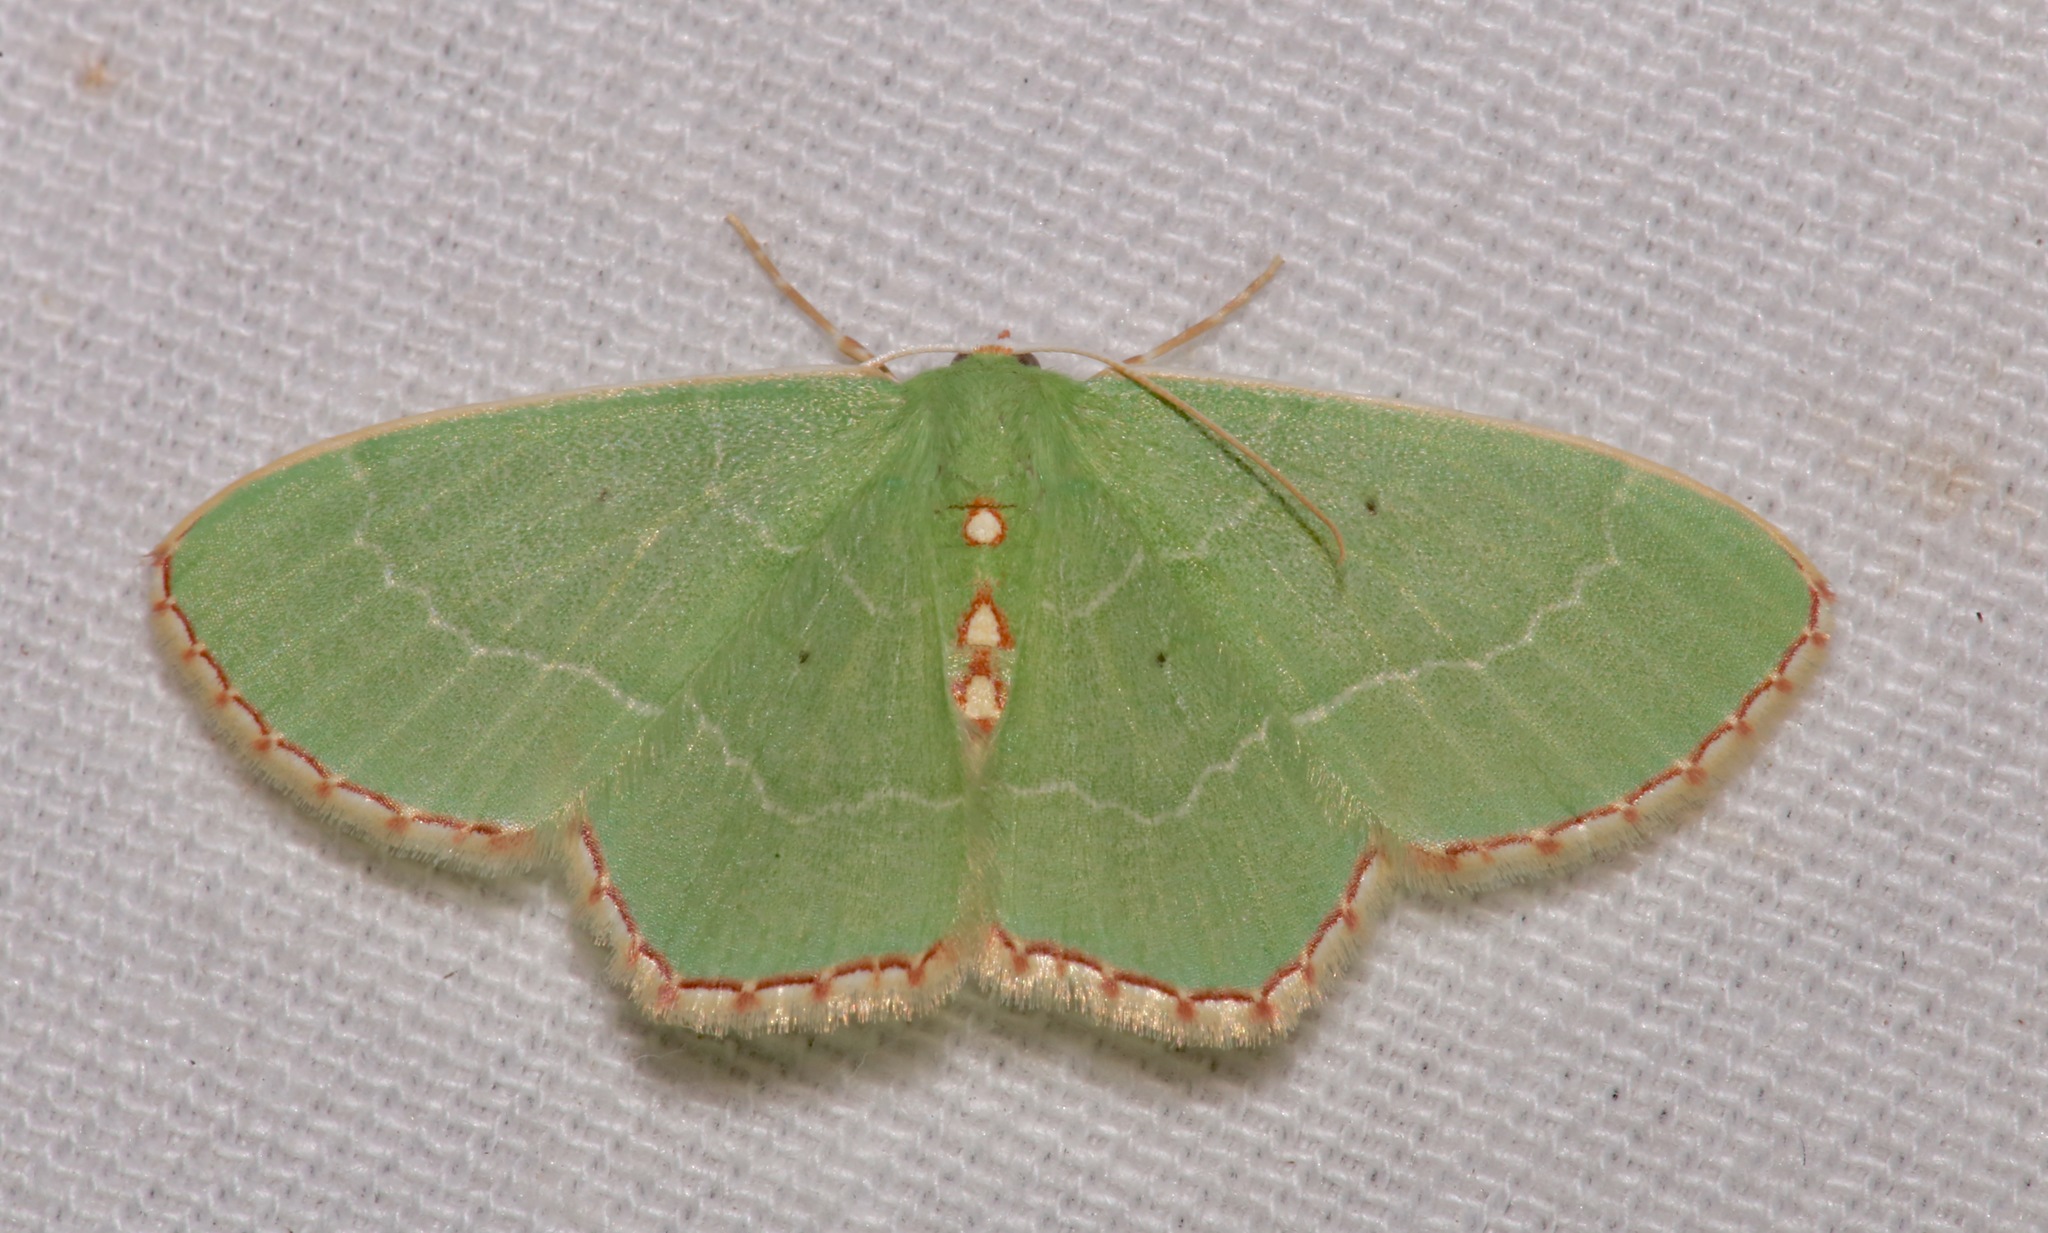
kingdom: Animalia
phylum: Arthropoda
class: Insecta
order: Lepidoptera
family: Geometridae
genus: Nemoria
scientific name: Nemoria lixaria
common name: Red-bordered emerald
